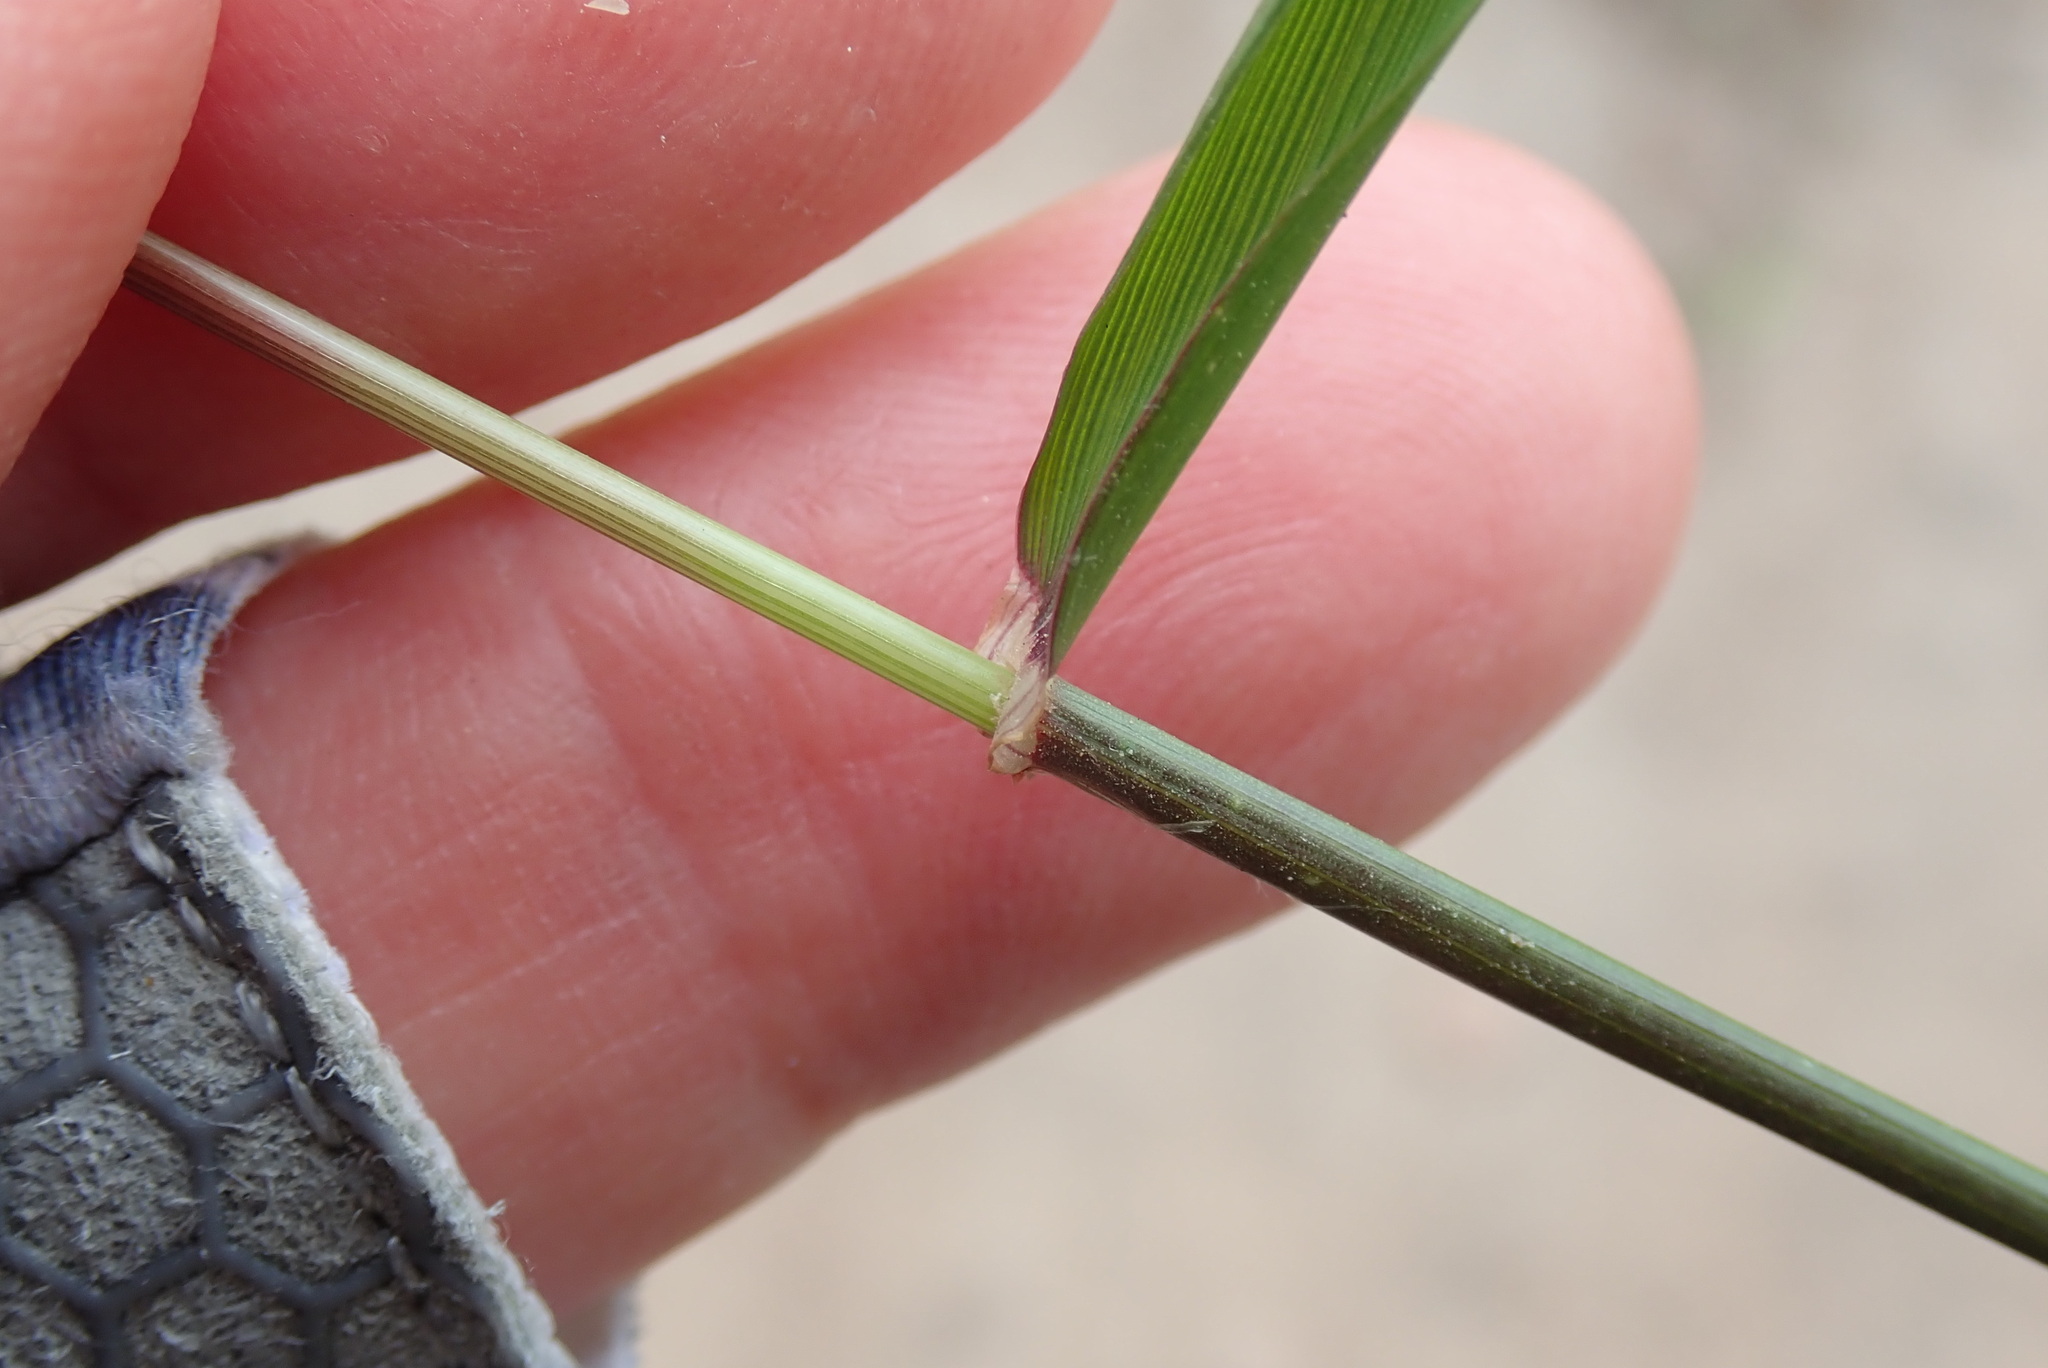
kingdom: Plantae
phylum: Tracheophyta
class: Liliopsida
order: Poales
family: Poaceae
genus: Lolium
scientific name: Lolium multiflorum
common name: Annual ryegrass
